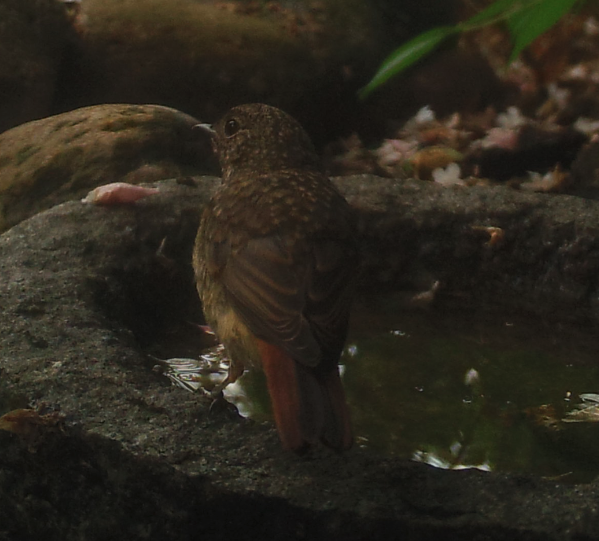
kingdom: Animalia
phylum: Chordata
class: Aves
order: Passeriformes
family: Muscicapidae
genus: Phoenicurus
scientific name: Phoenicurus phoenicurus
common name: Common redstart
